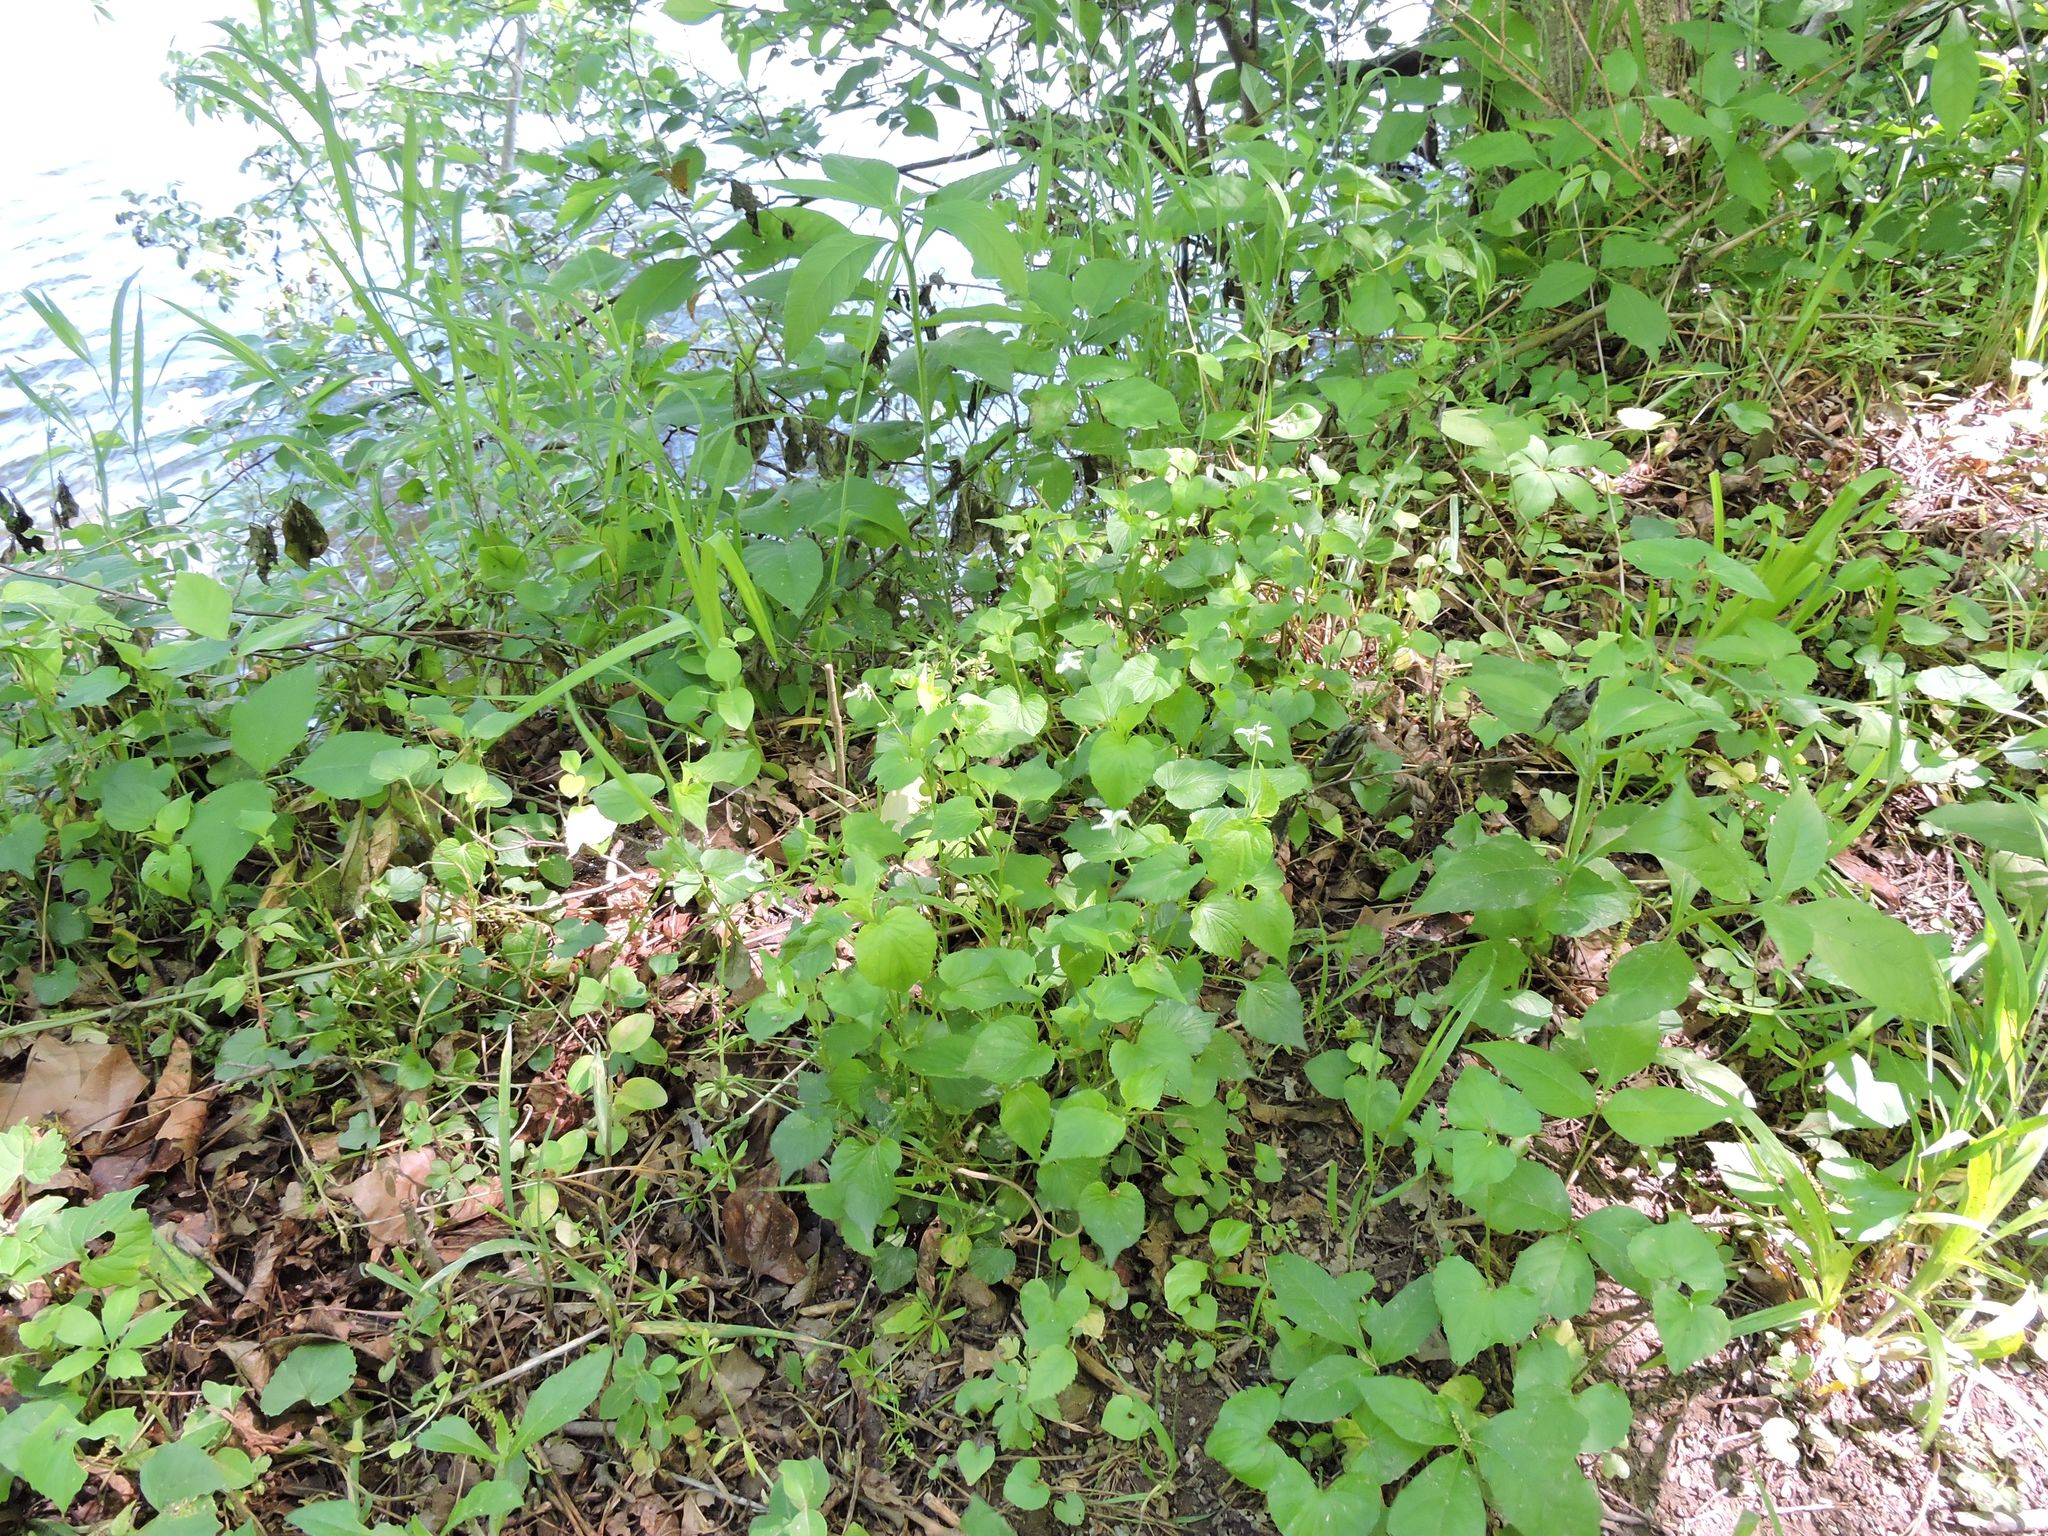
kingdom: Plantae
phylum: Tracheophyta
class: Magnoliopsida
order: Malpighiales
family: Violaceae
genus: Viola
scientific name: Viola striata
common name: Cream violet
